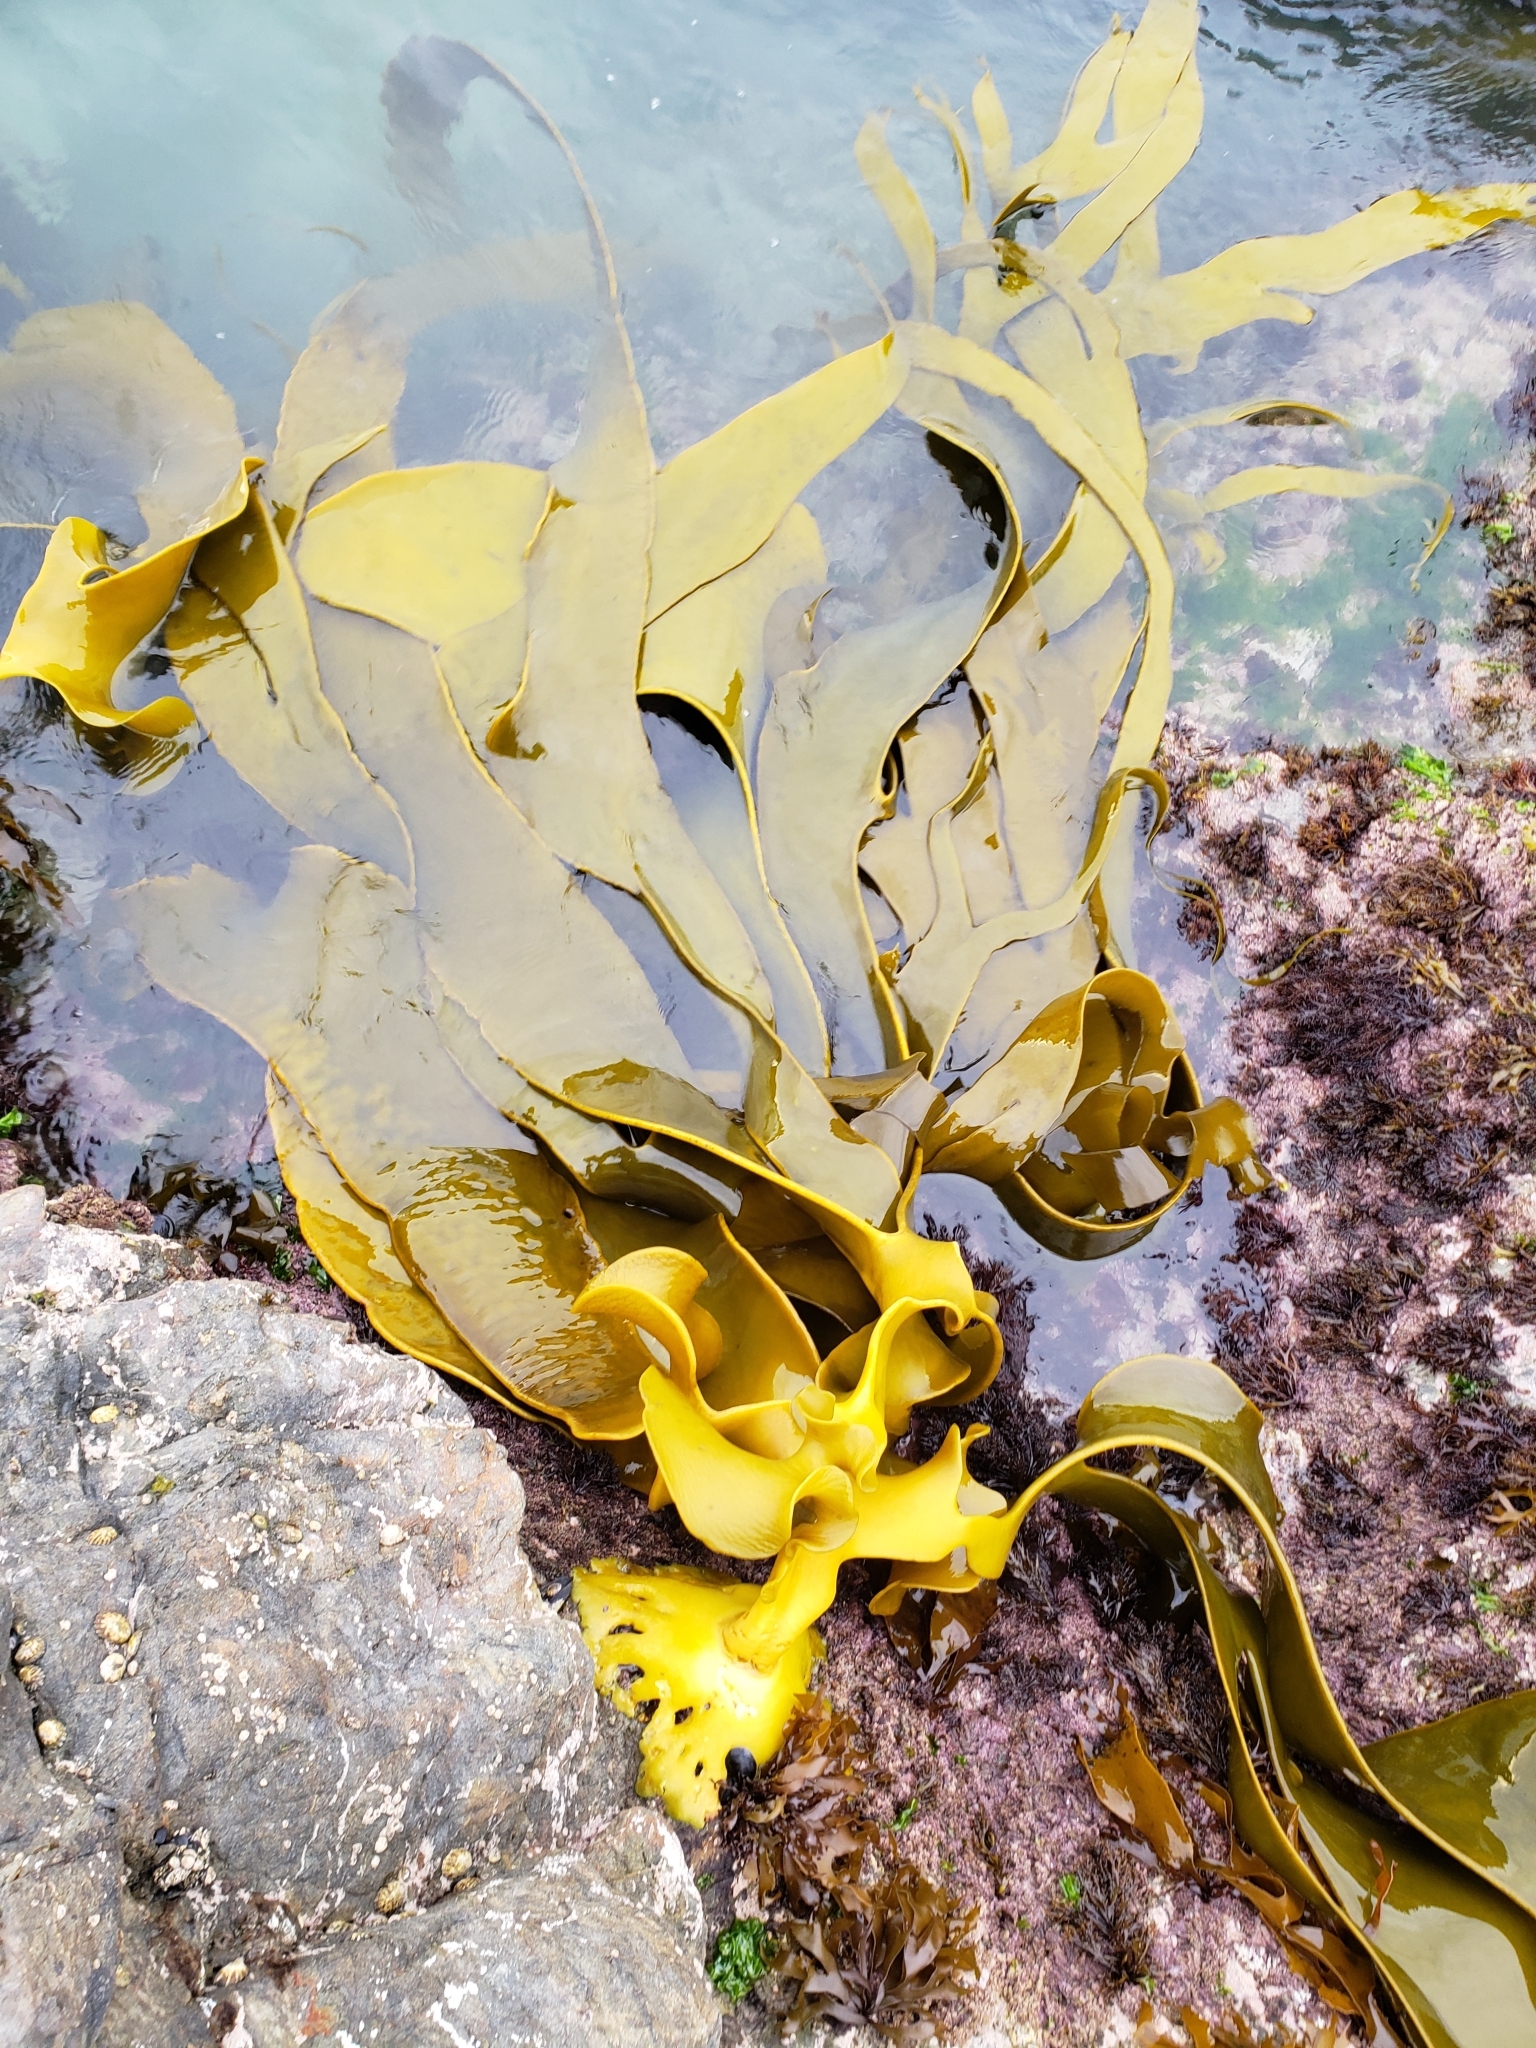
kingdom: Chromista
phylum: Ochrophyta
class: Phaeophyceae
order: Fucales
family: Durvillaeaceae
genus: Durvillaea
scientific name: Durvillaea poha
